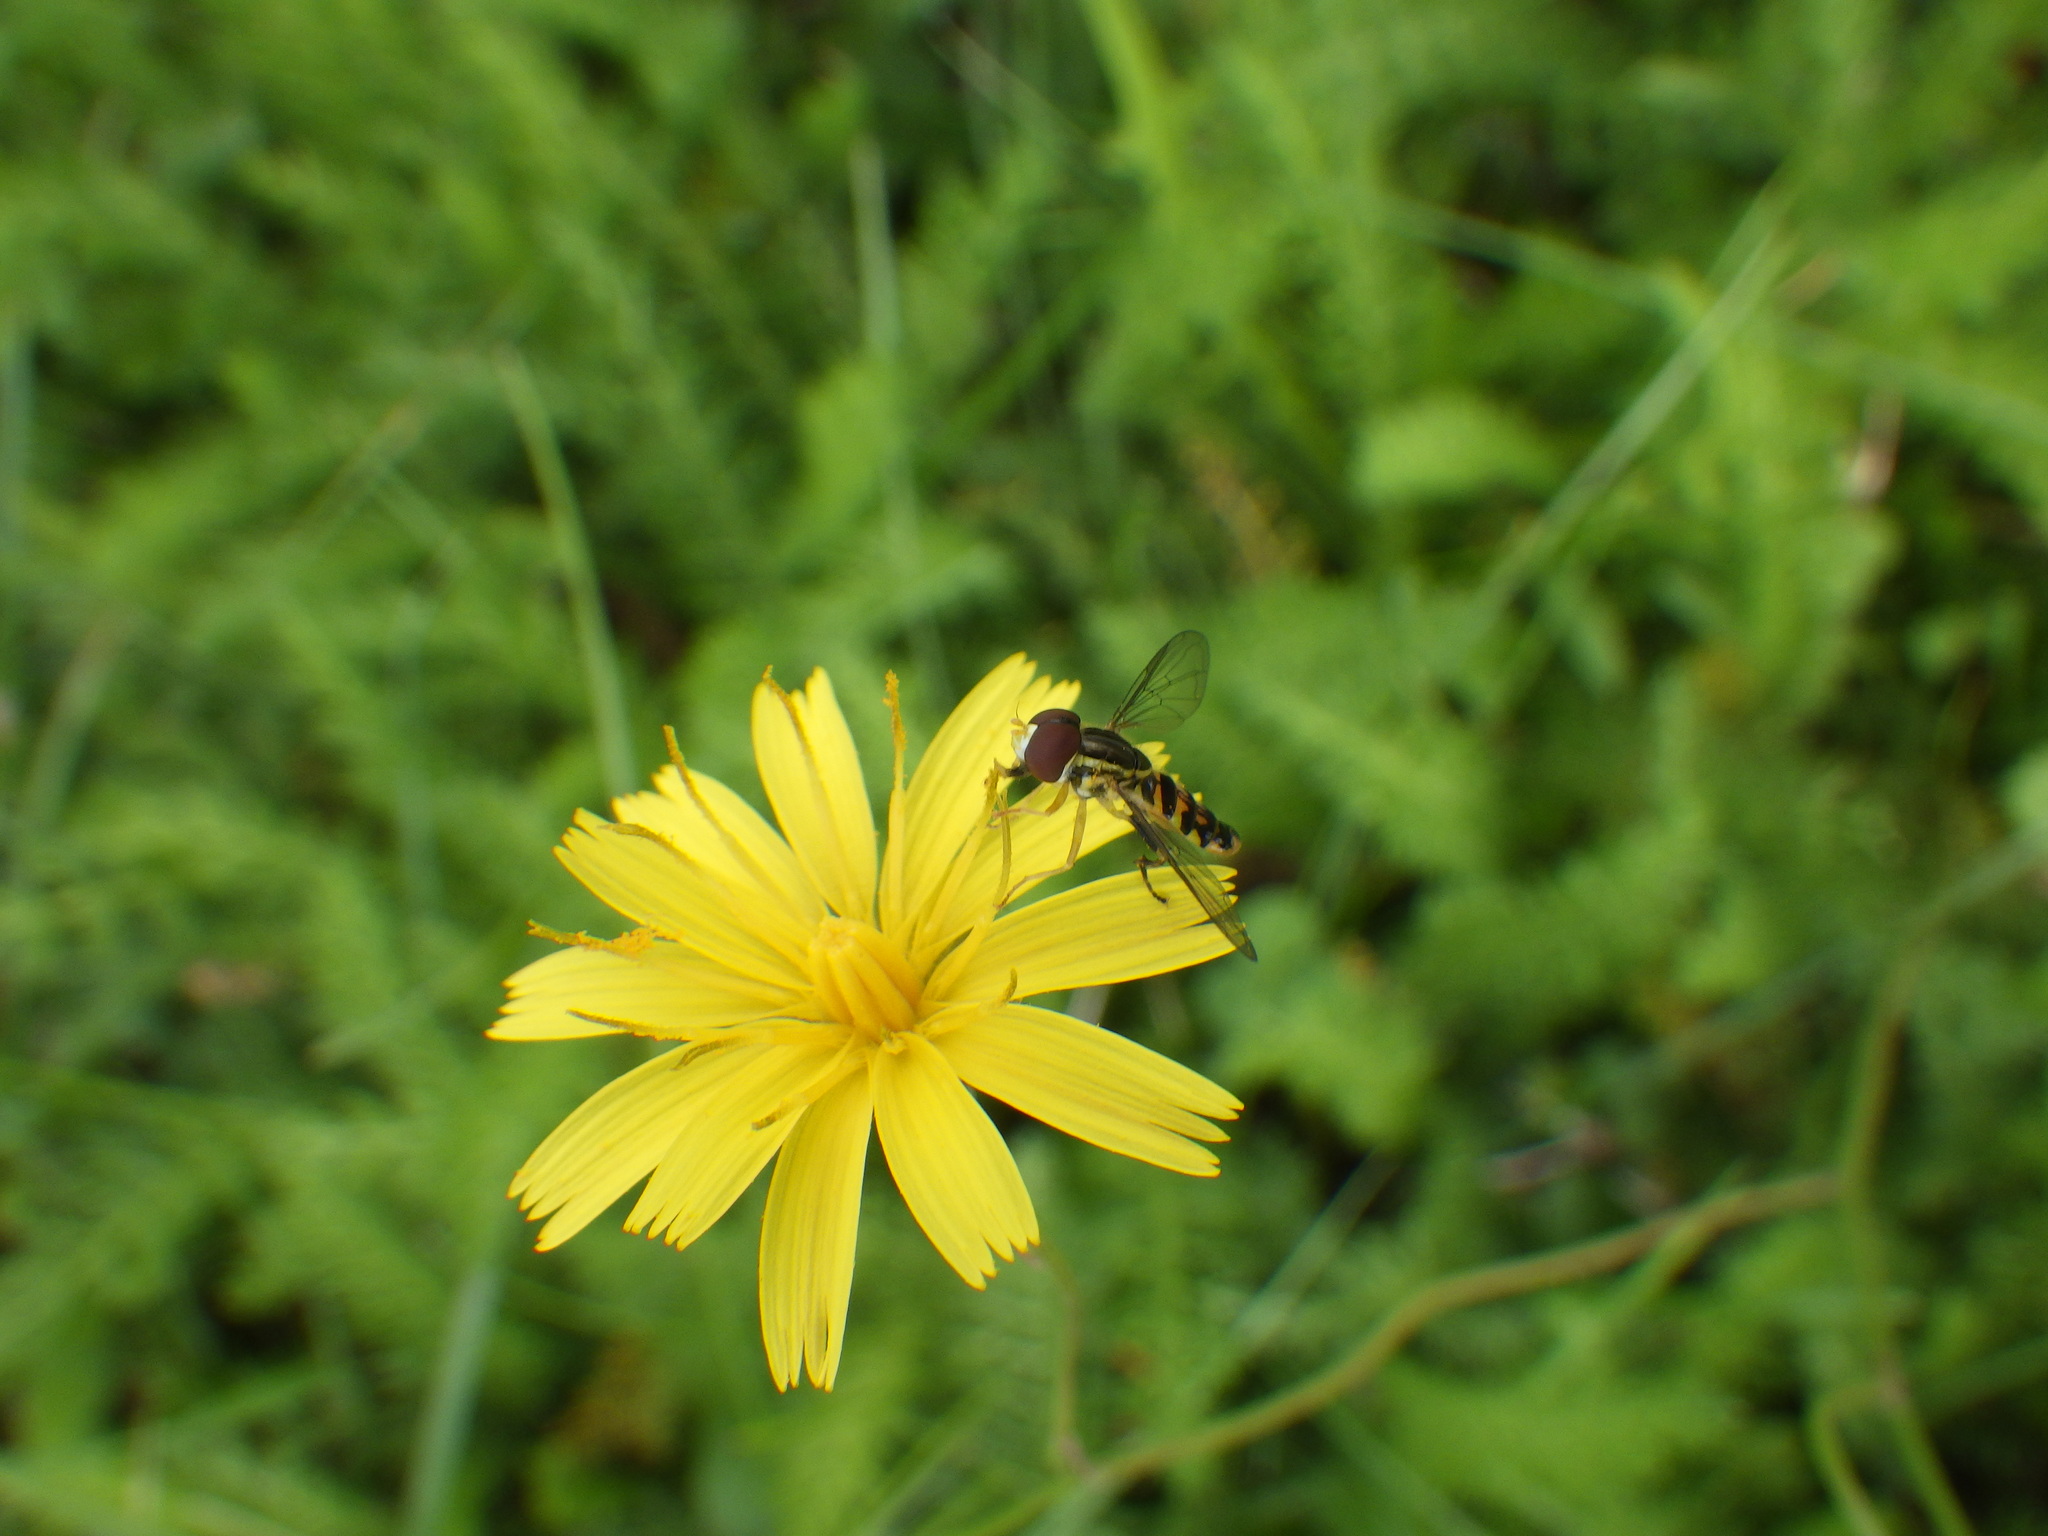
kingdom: Animalia
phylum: Arthropoda
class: Insecta
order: Diptera
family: Syrphidae
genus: Toxomerus
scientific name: Toxomerus geminatus
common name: Eastern calligrapher
